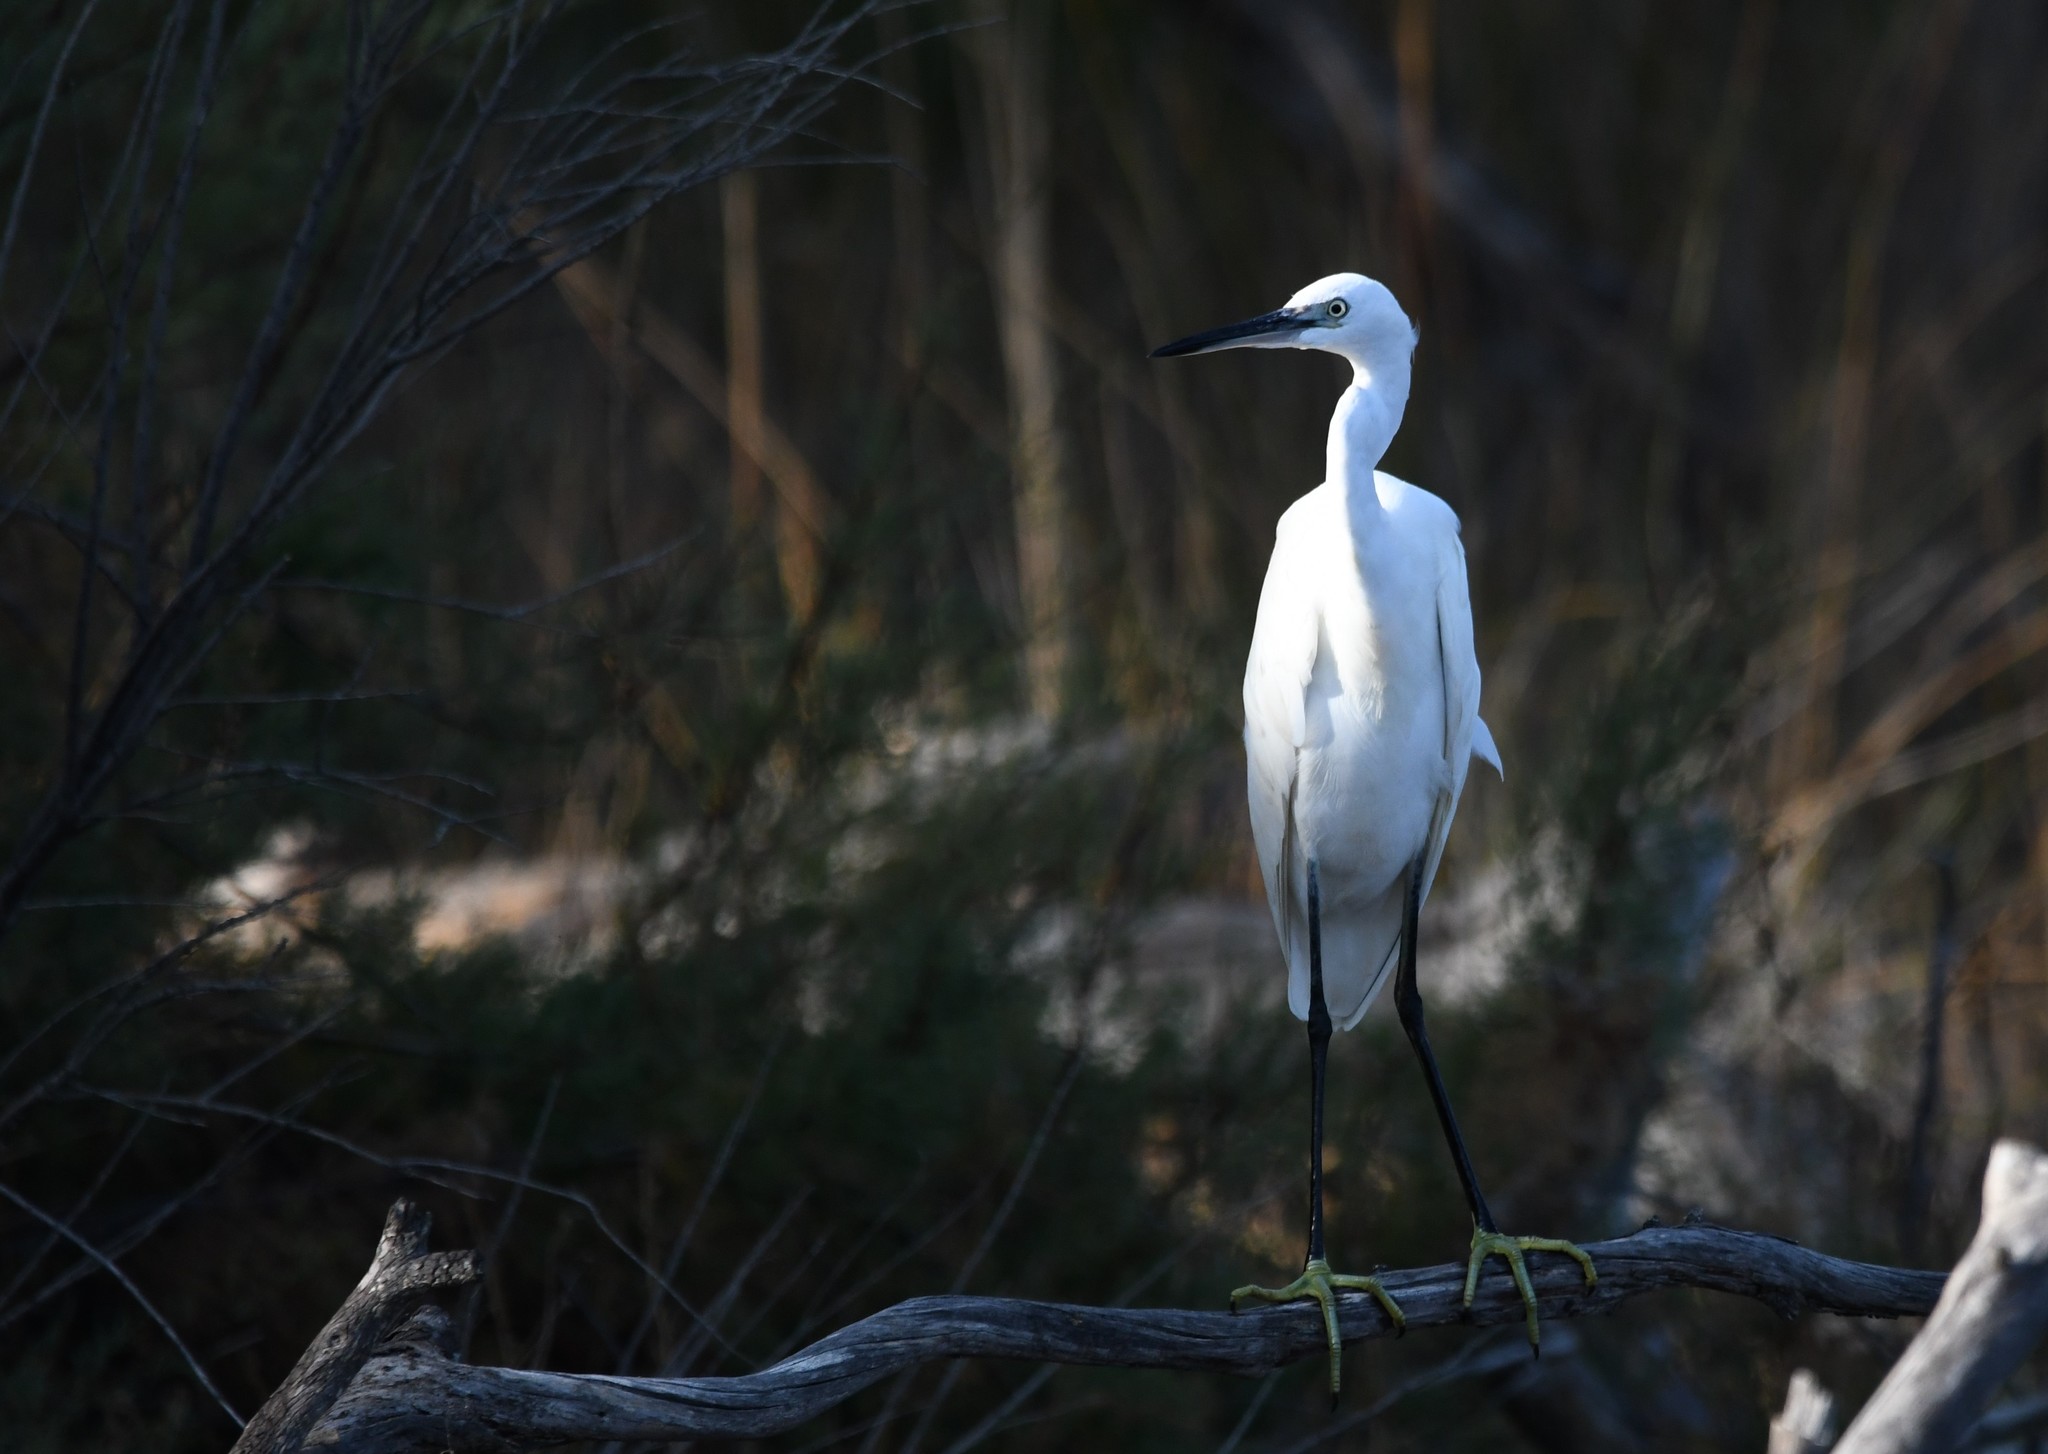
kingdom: Animalia
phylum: Chordata
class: Aves
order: Pelecaniformes
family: Ardeidae
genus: Egretta
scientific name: Egretta garzetta
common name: Little egret
